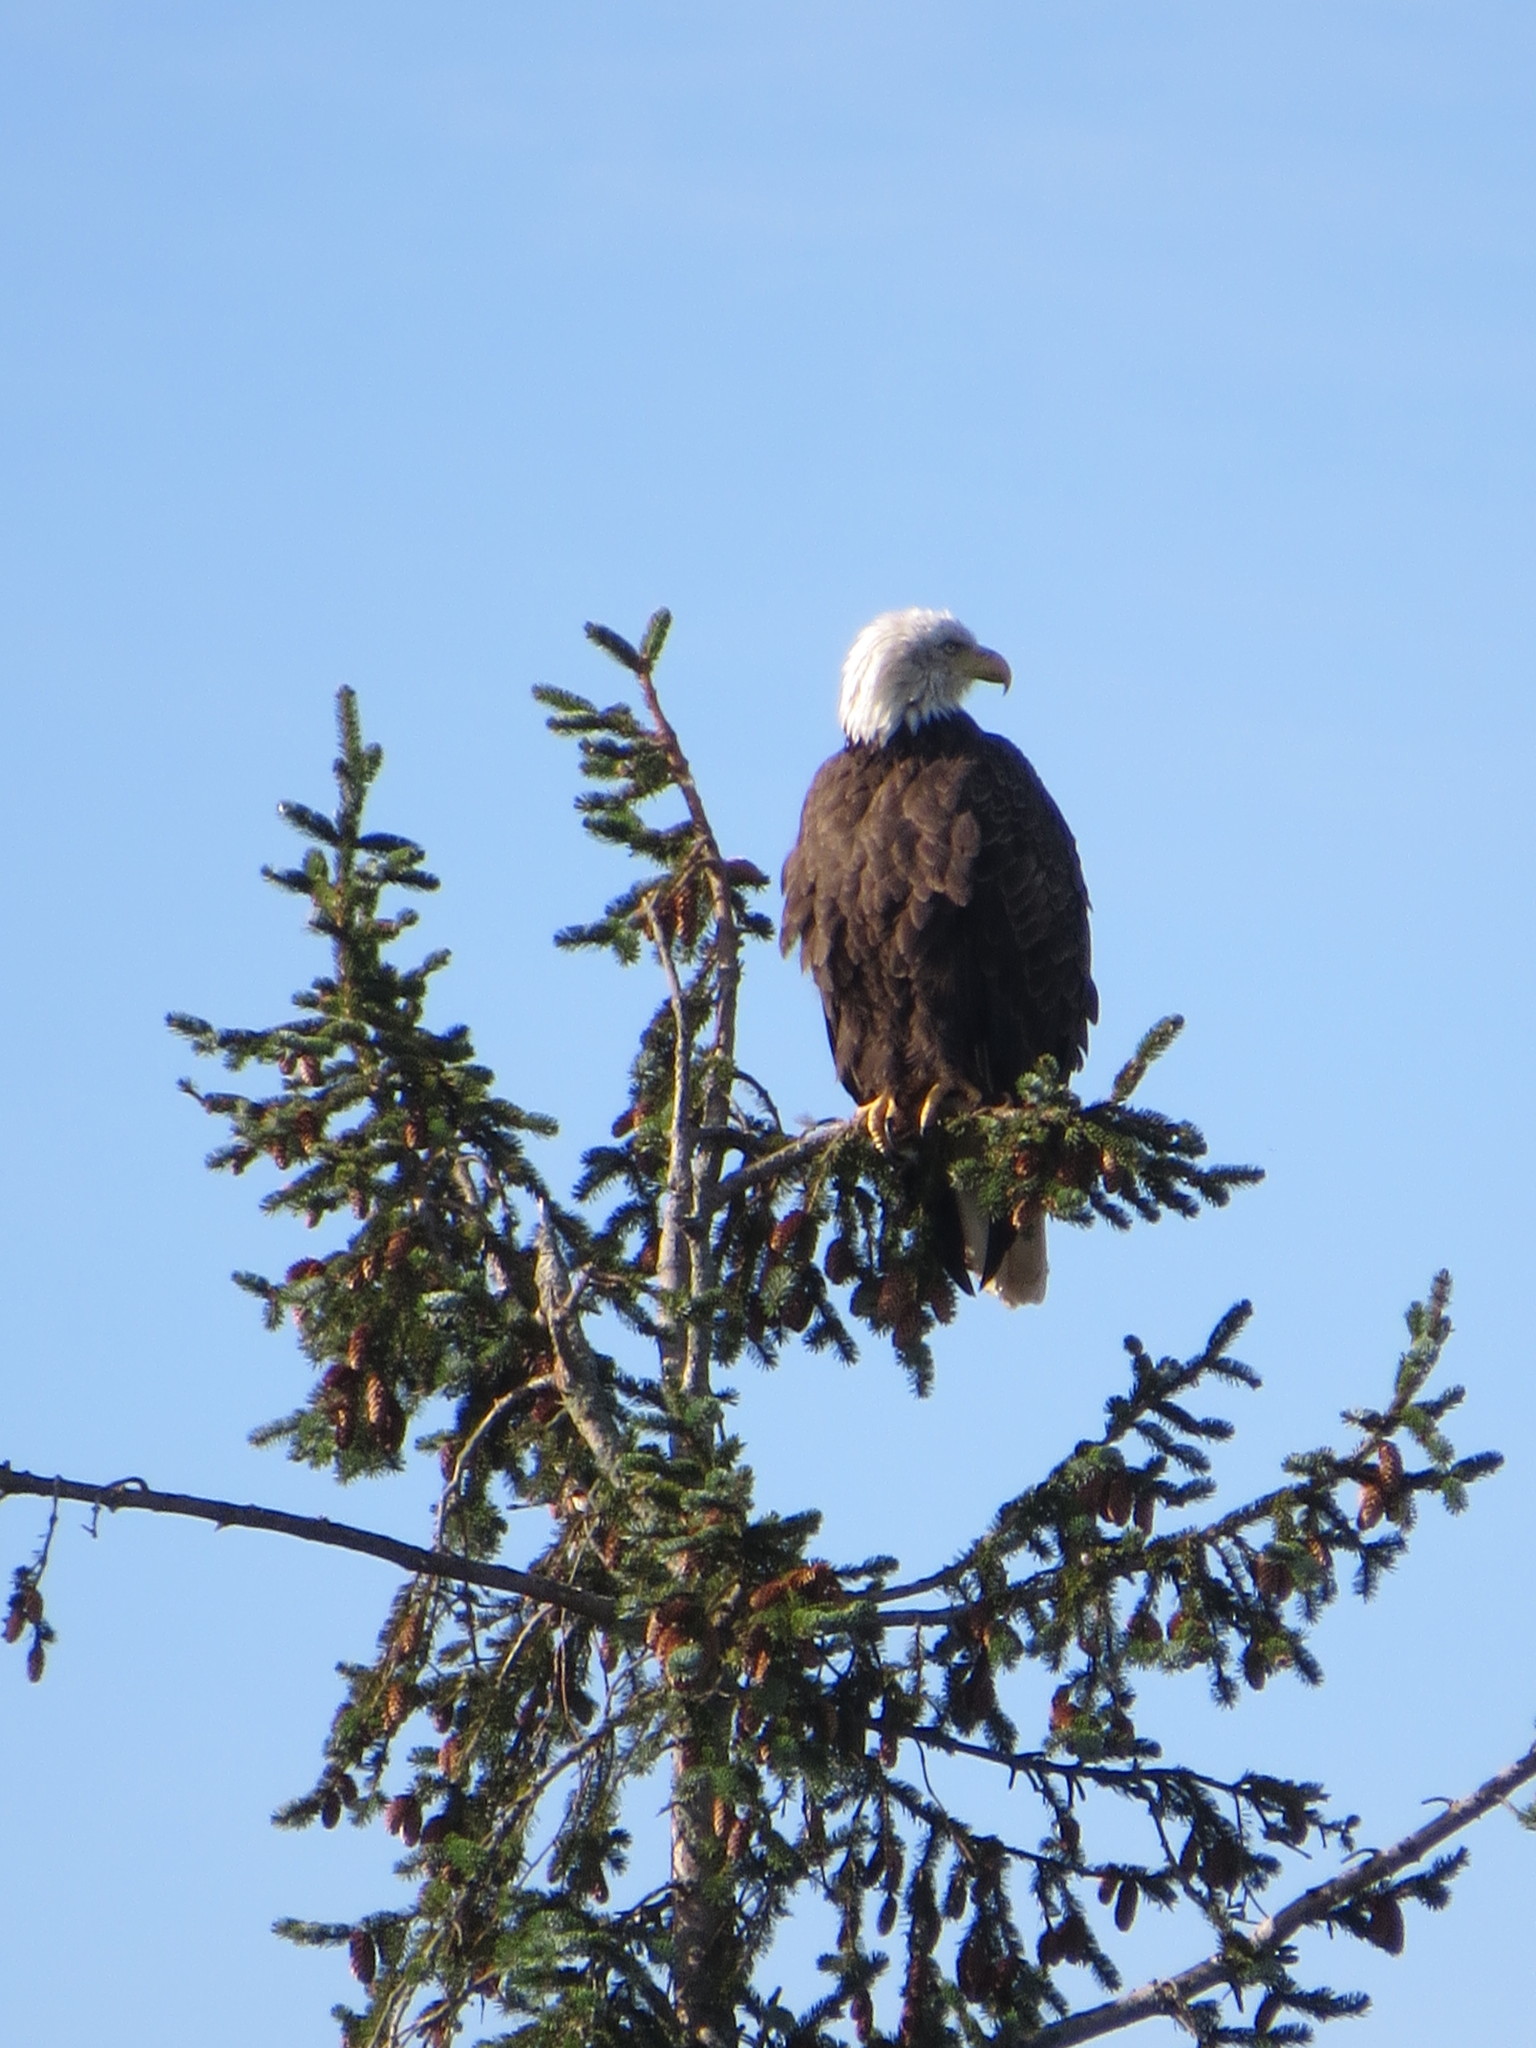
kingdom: Animalia
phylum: Chordata
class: Aves
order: Accipitriformes
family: Accipitridae
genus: Haliaeetus
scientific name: Haliaeetus leucocephalus
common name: Bald eagle
